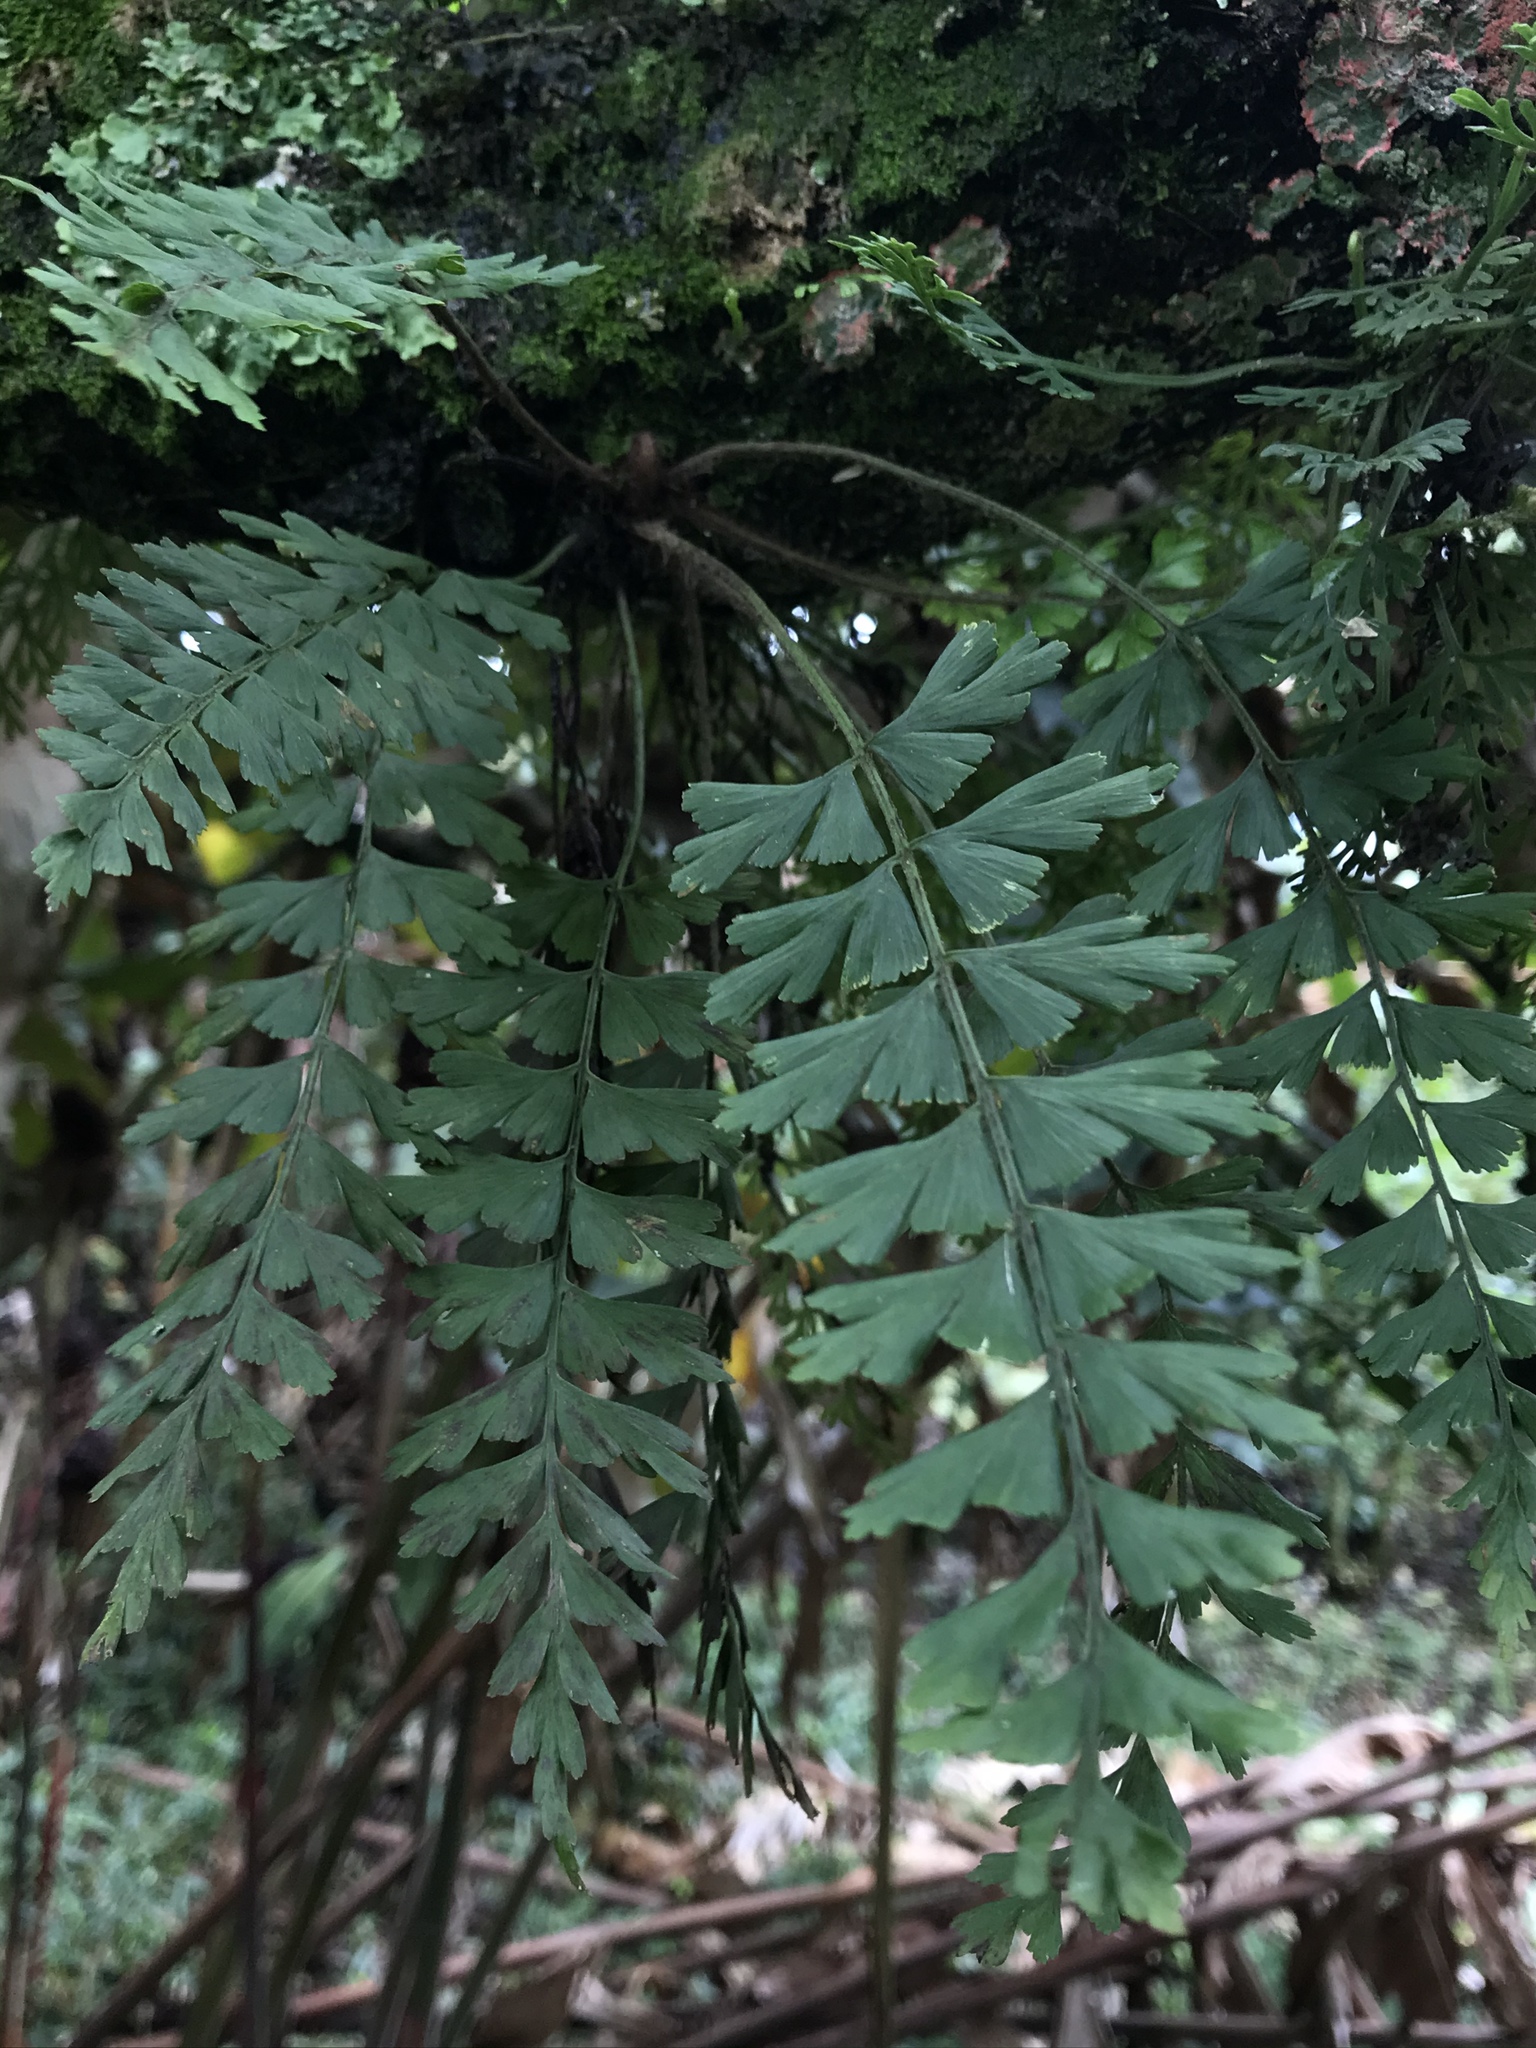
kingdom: Plantae
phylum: Tracheophyta
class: Polypodiopsida
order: Polypodiales
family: Aspleniaceae
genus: Asplenium
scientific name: Asplenium praemorsum
